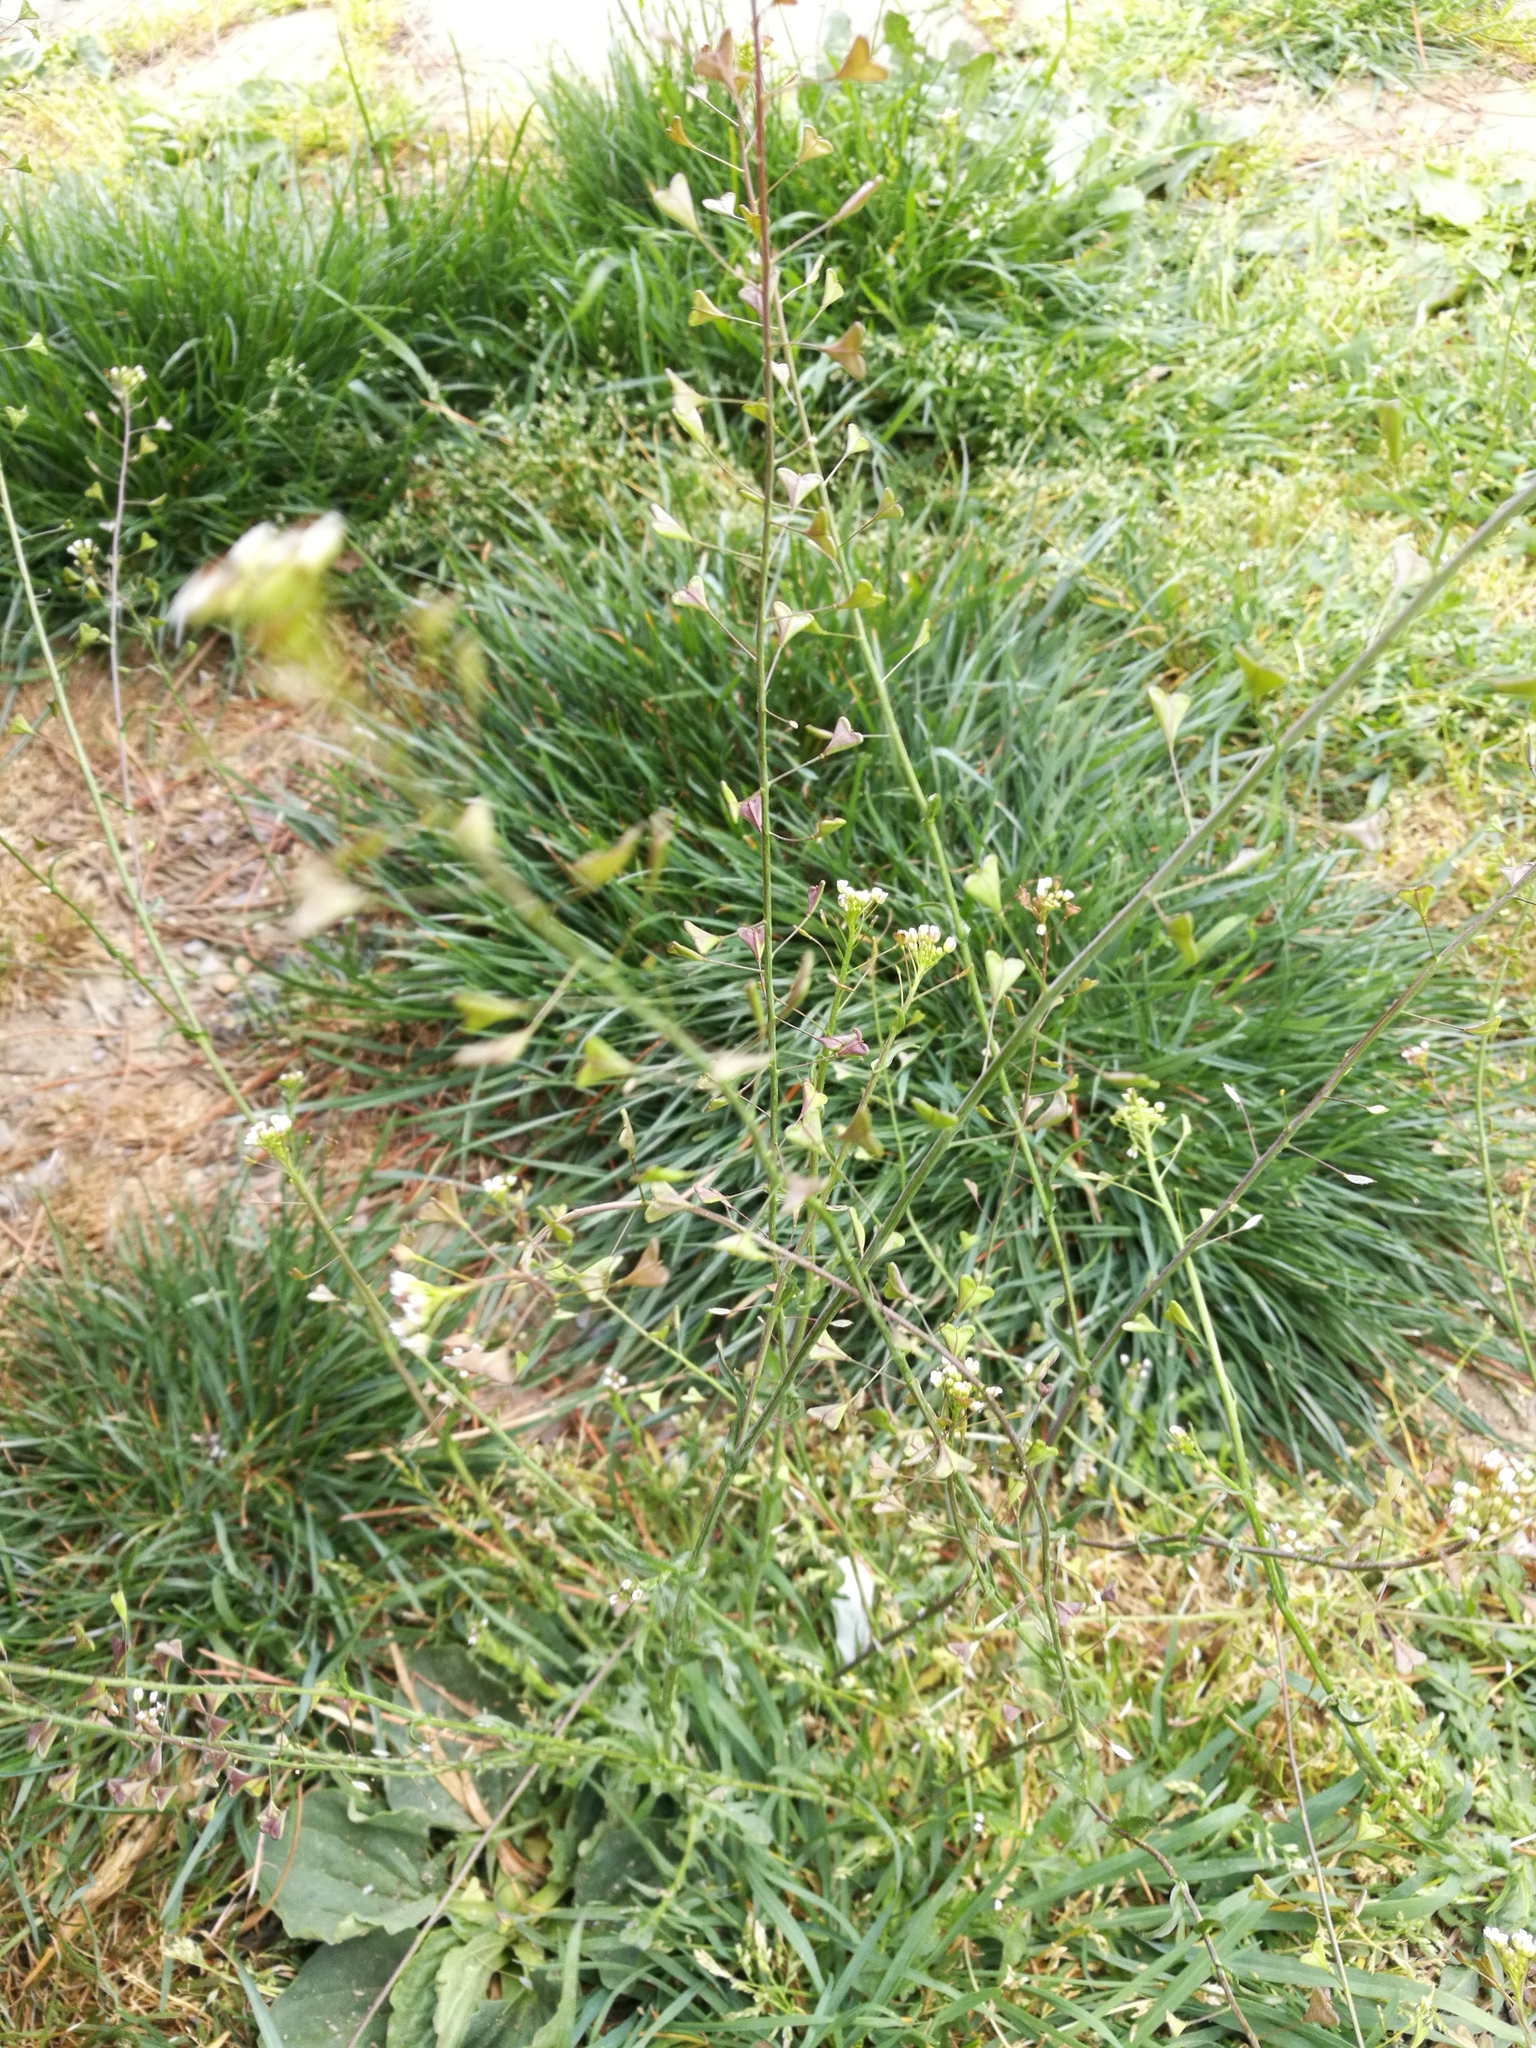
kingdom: Plantae
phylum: Tracheophyta
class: Magnoliopsida
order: Brassicales
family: Brassicaceae
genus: Capsella
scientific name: Capsella rubella
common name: Pink shepherd's-purse
